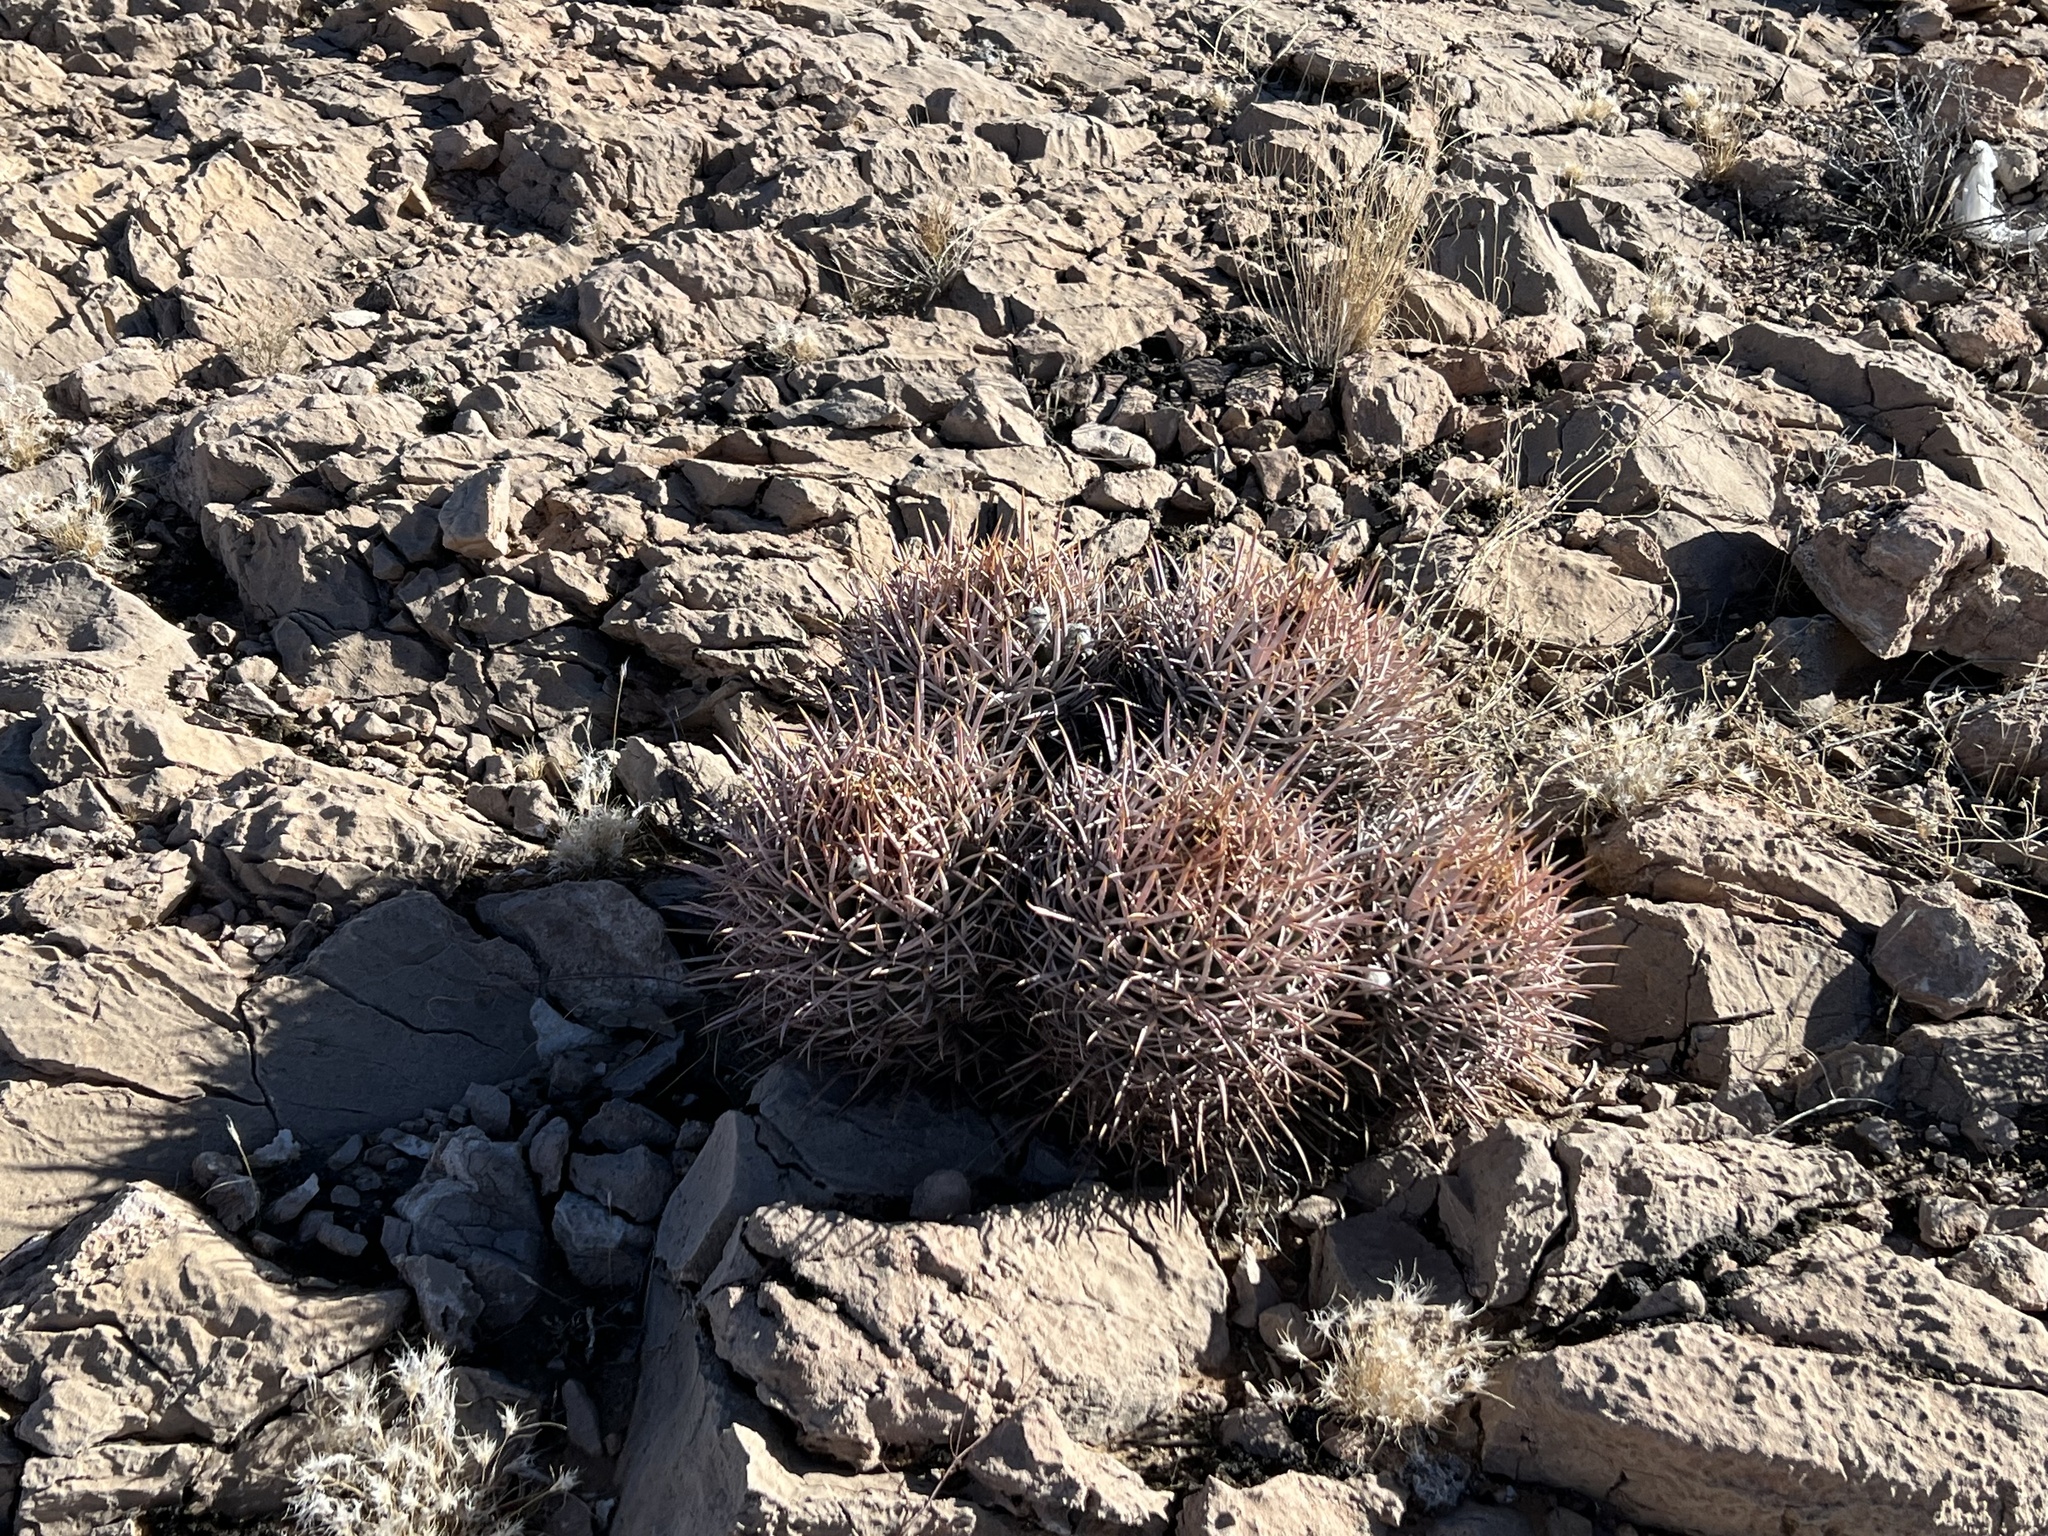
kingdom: Plantae
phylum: Tracheophyta
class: Magnoliopsida
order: Caryophyllales
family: Cactaceae
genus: Echinocactus
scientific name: Echinocactus polycephalus
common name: Cottontop cactus
